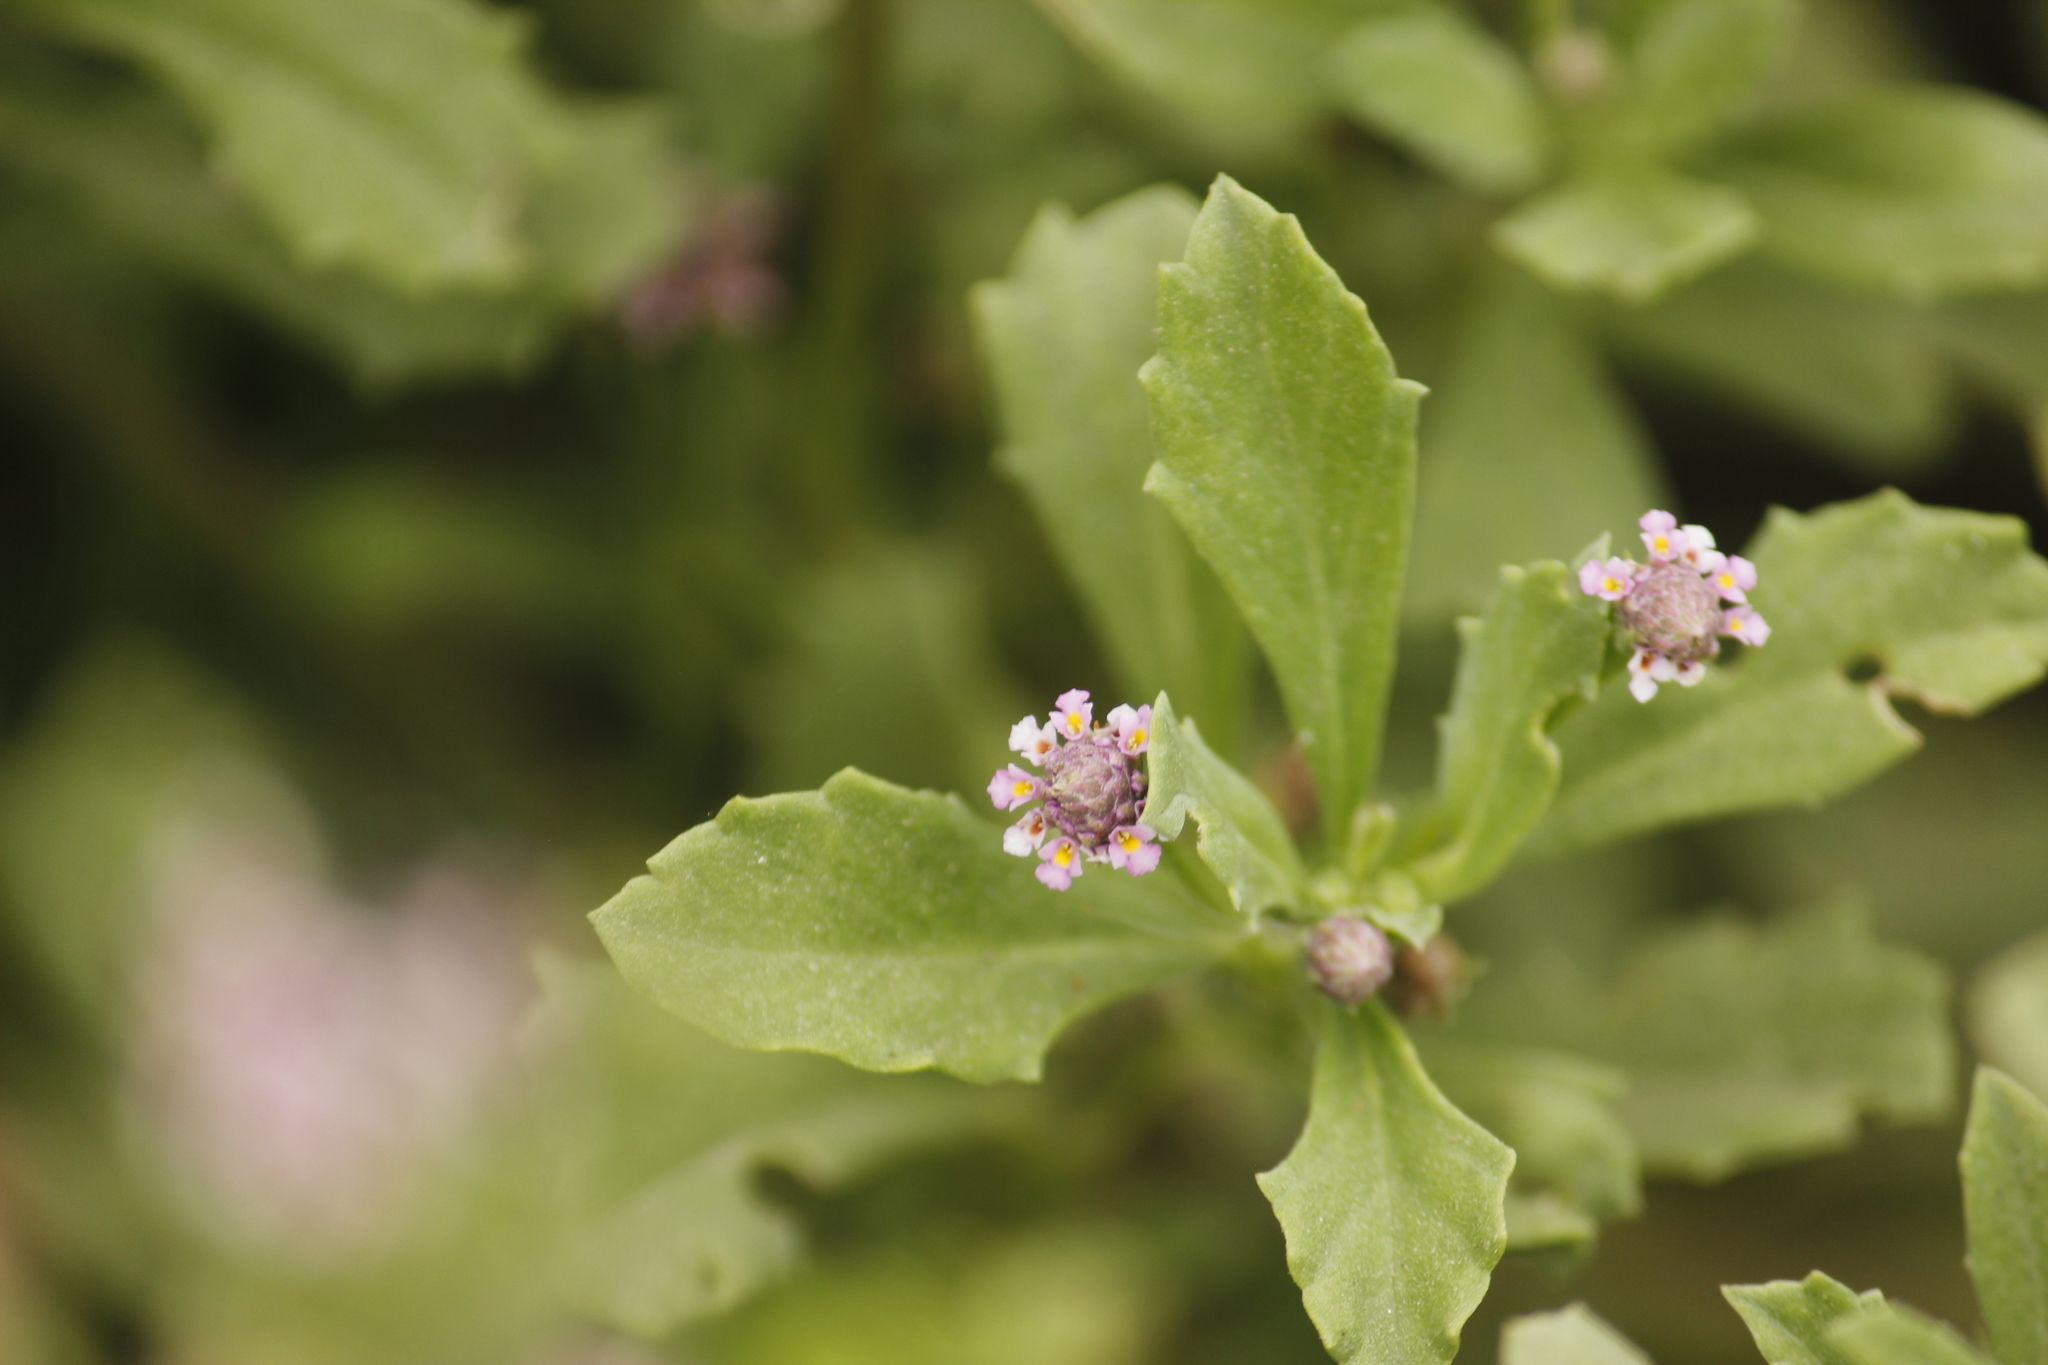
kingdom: Plantae
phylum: Tracheophyta
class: Magnoliopsida
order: Lamiales
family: Verbenaceae
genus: Phyla
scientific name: Phyla nodiflora
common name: Frogfruit
